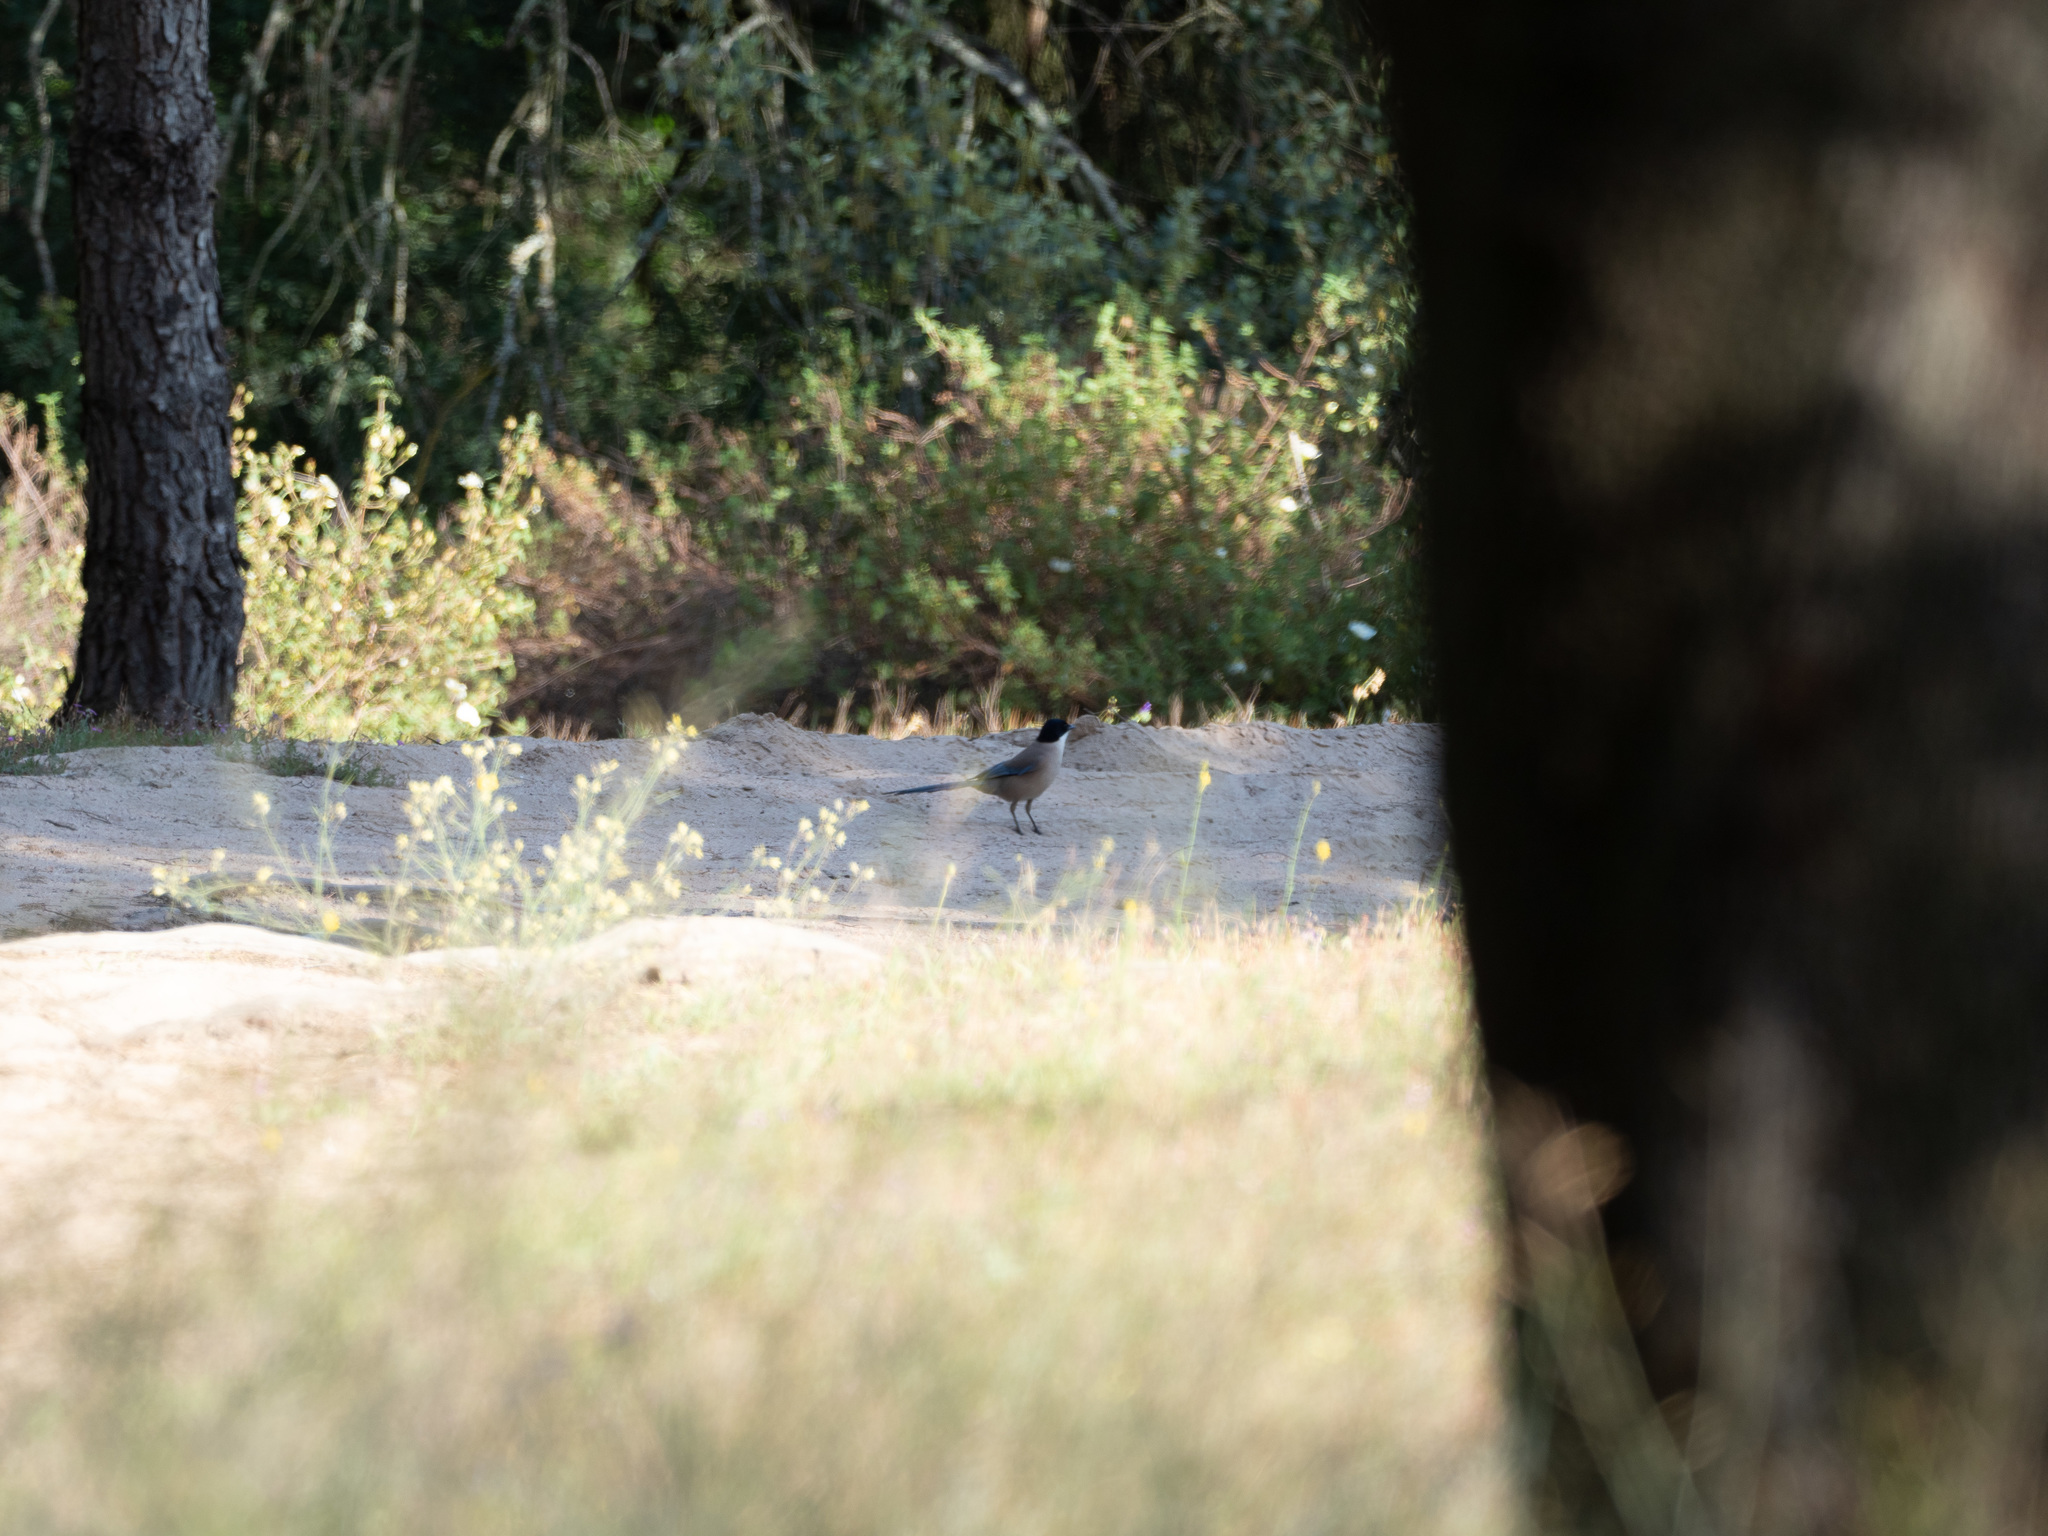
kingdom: Animalia
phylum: Chordata
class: Aves
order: Passeriformes
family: Corvidae
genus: Cyanopica
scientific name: Cyanopica cooki
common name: Iberian magpie
